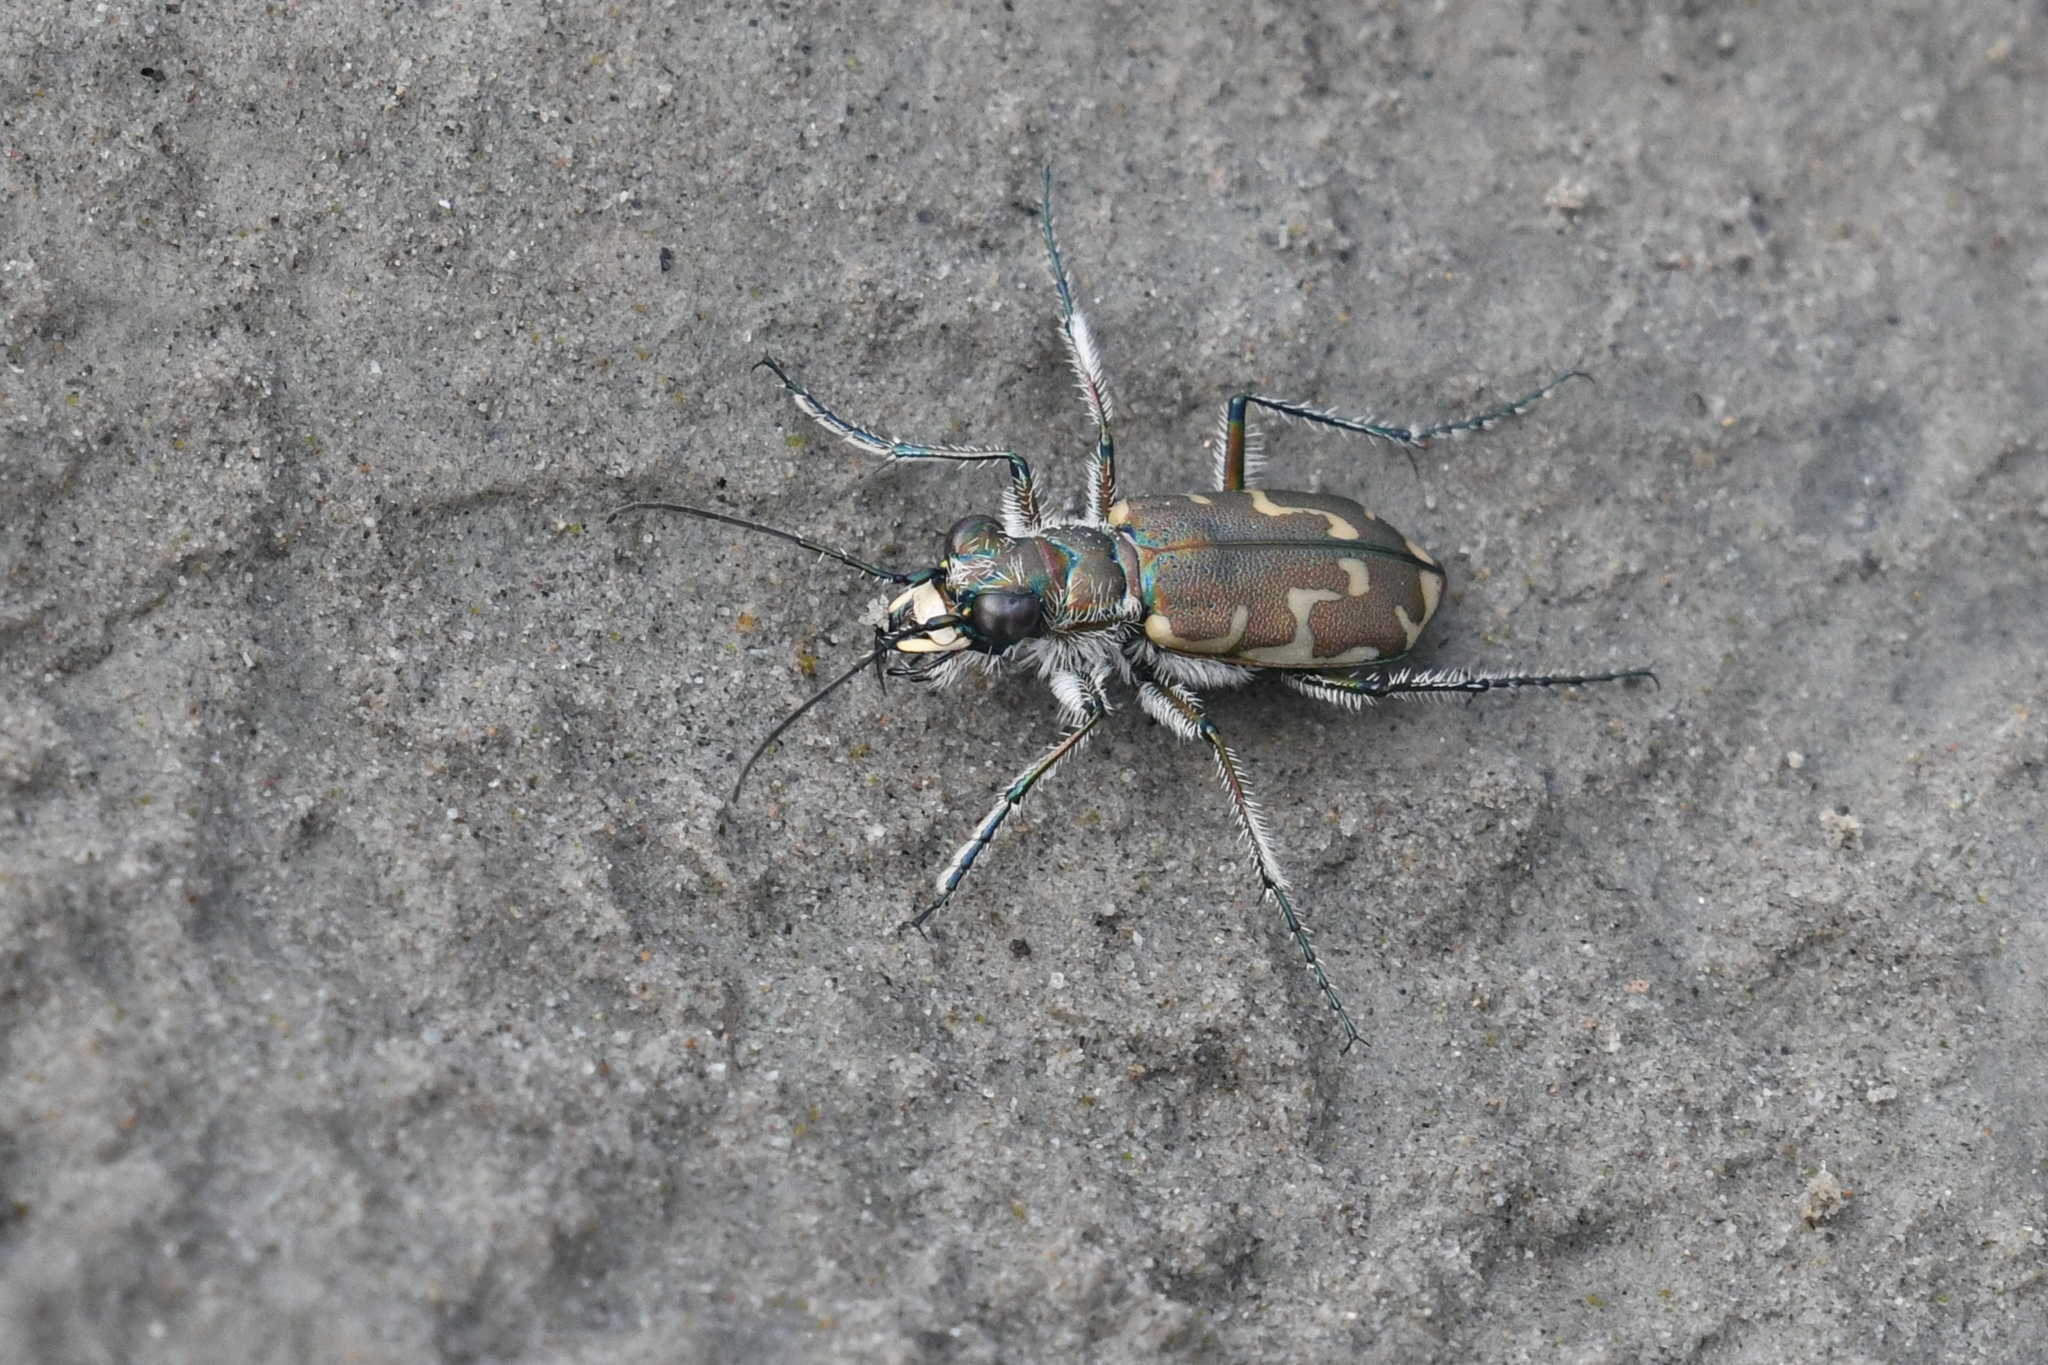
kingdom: Animalia
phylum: Arthropoda
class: Insecta
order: Coleoptera
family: Carabidae
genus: Cicindela
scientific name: Cicindela repanda
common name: Bronzed tiger beetle
